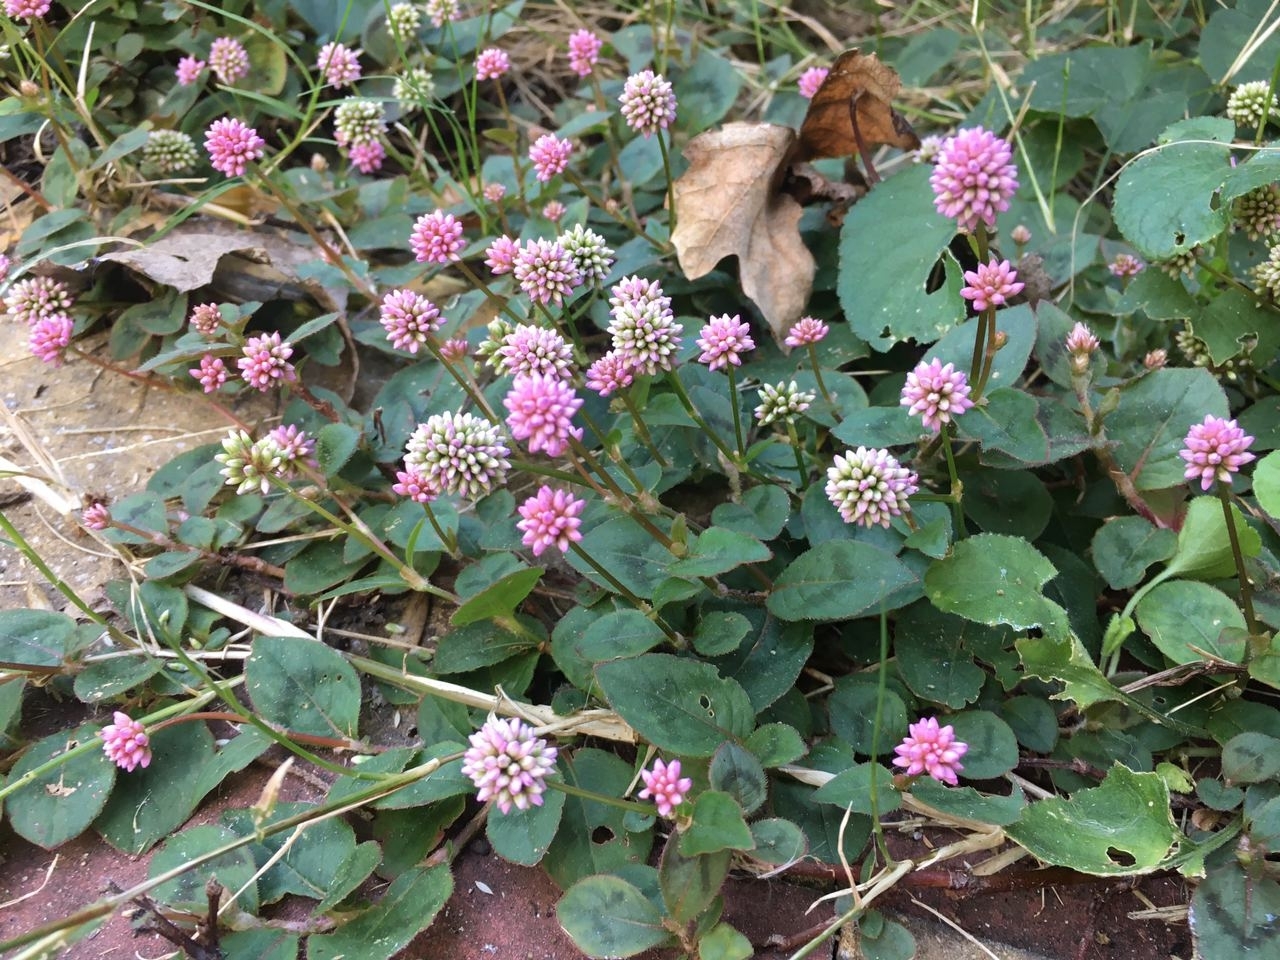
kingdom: Plantae
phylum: Tracheophyta
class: Magnoliopsida
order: Caryophyllales
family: Polygonaceae
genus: Persicaria
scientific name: Persicaria capitata
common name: Pinkhead smartweed
